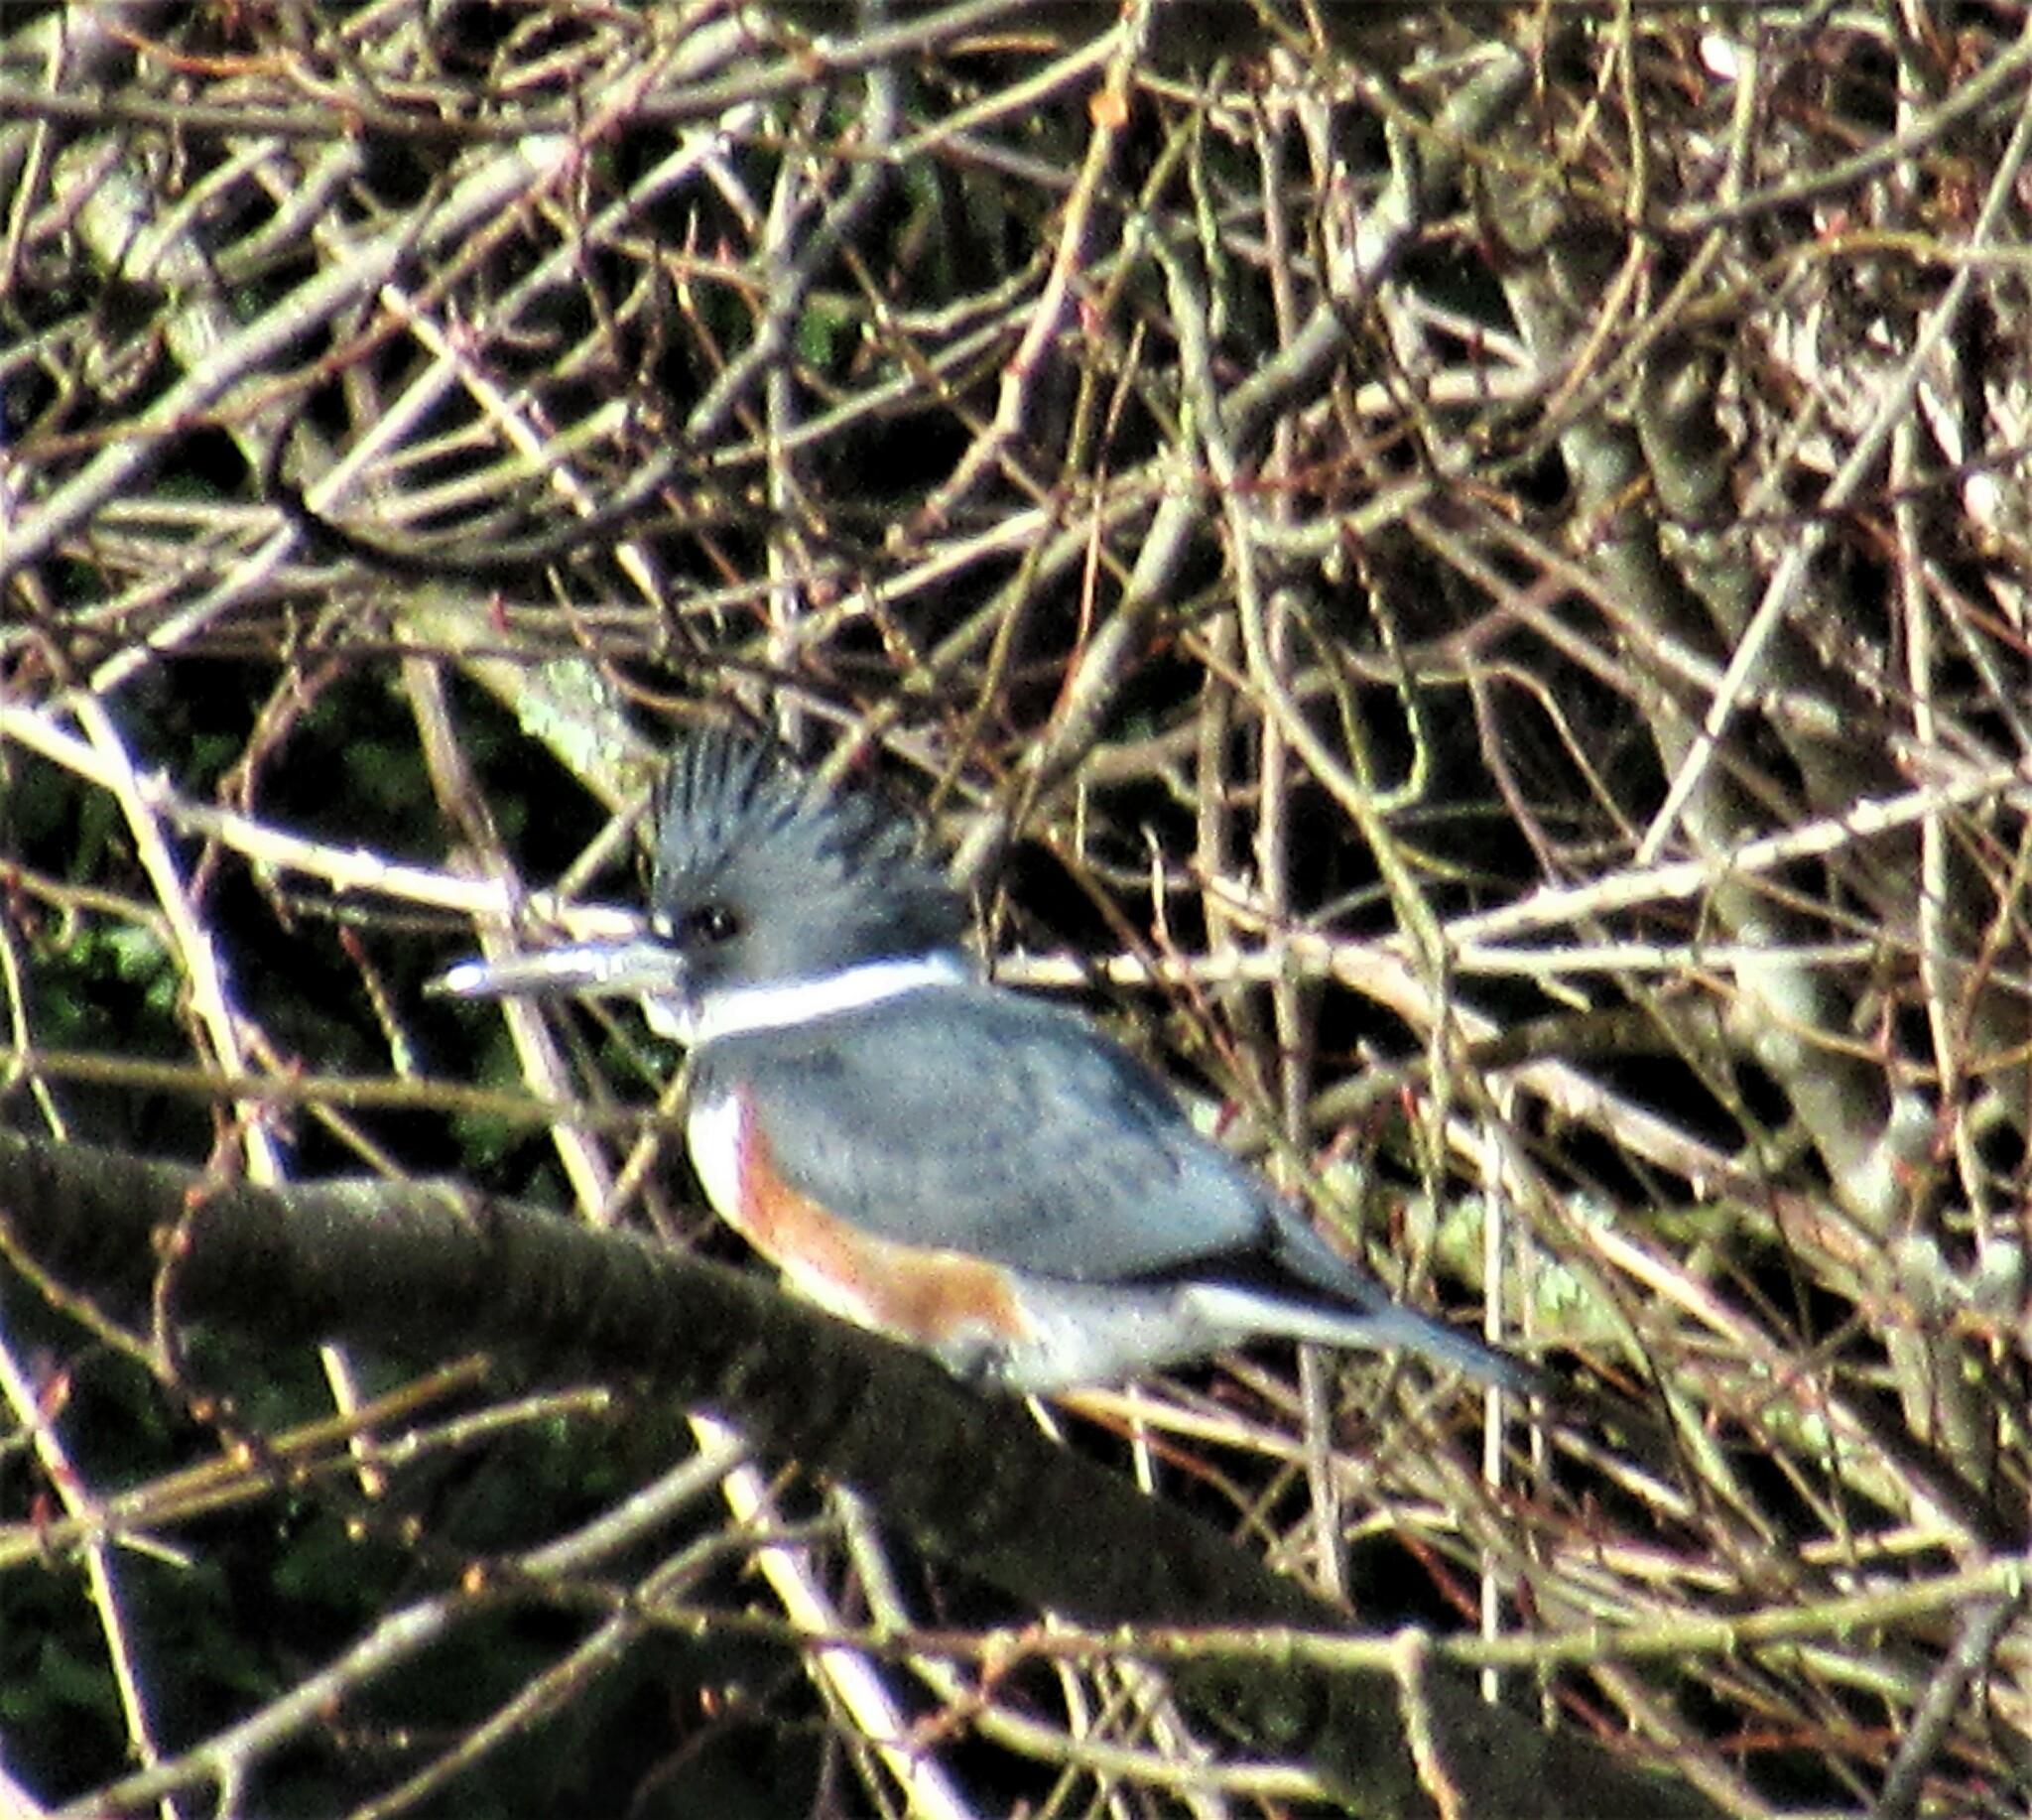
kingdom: Animalia
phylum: Chordata
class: Aves
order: Coraciiformes
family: Alcedinidae
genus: Megaceryle
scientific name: Megaceryle alcyon
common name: Belted kingfisher
